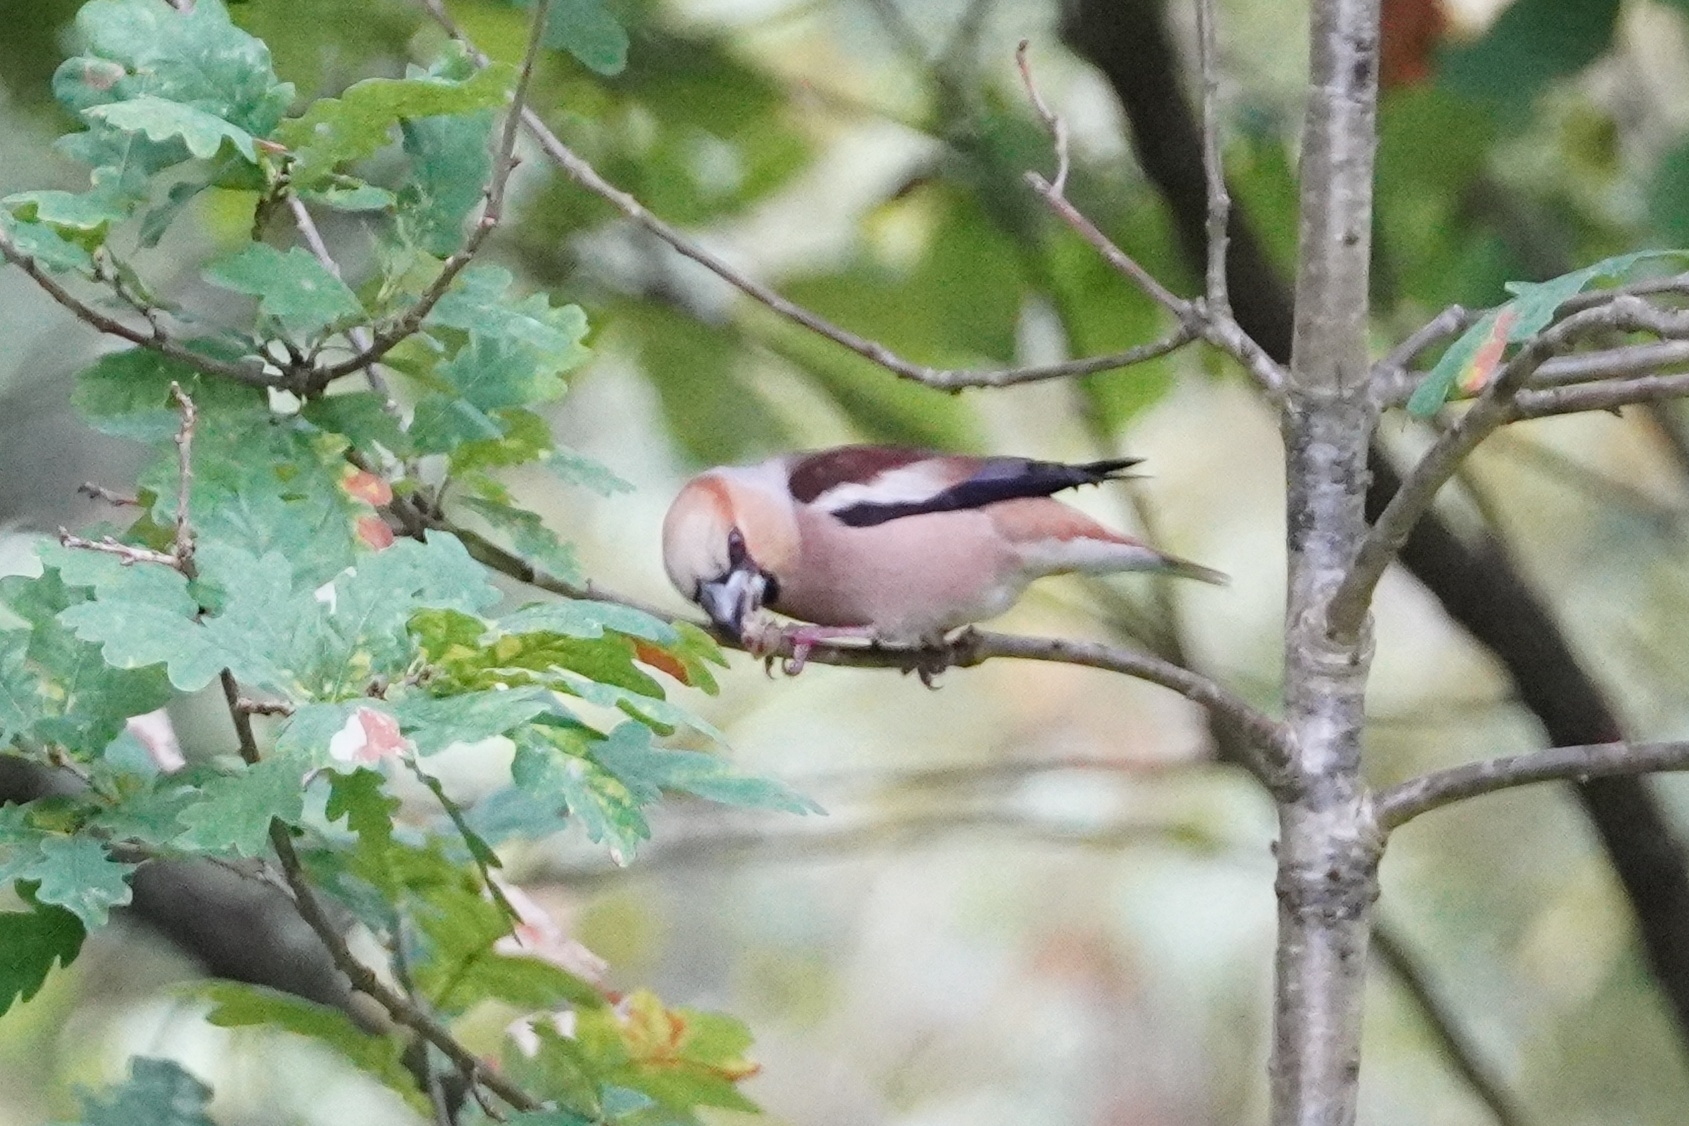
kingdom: Animalia
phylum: Chordata
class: Aves
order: Passeriformes
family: Fringillidae
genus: Coccothraustes
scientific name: Coccothraustes coccothraustes
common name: Hawfinch
